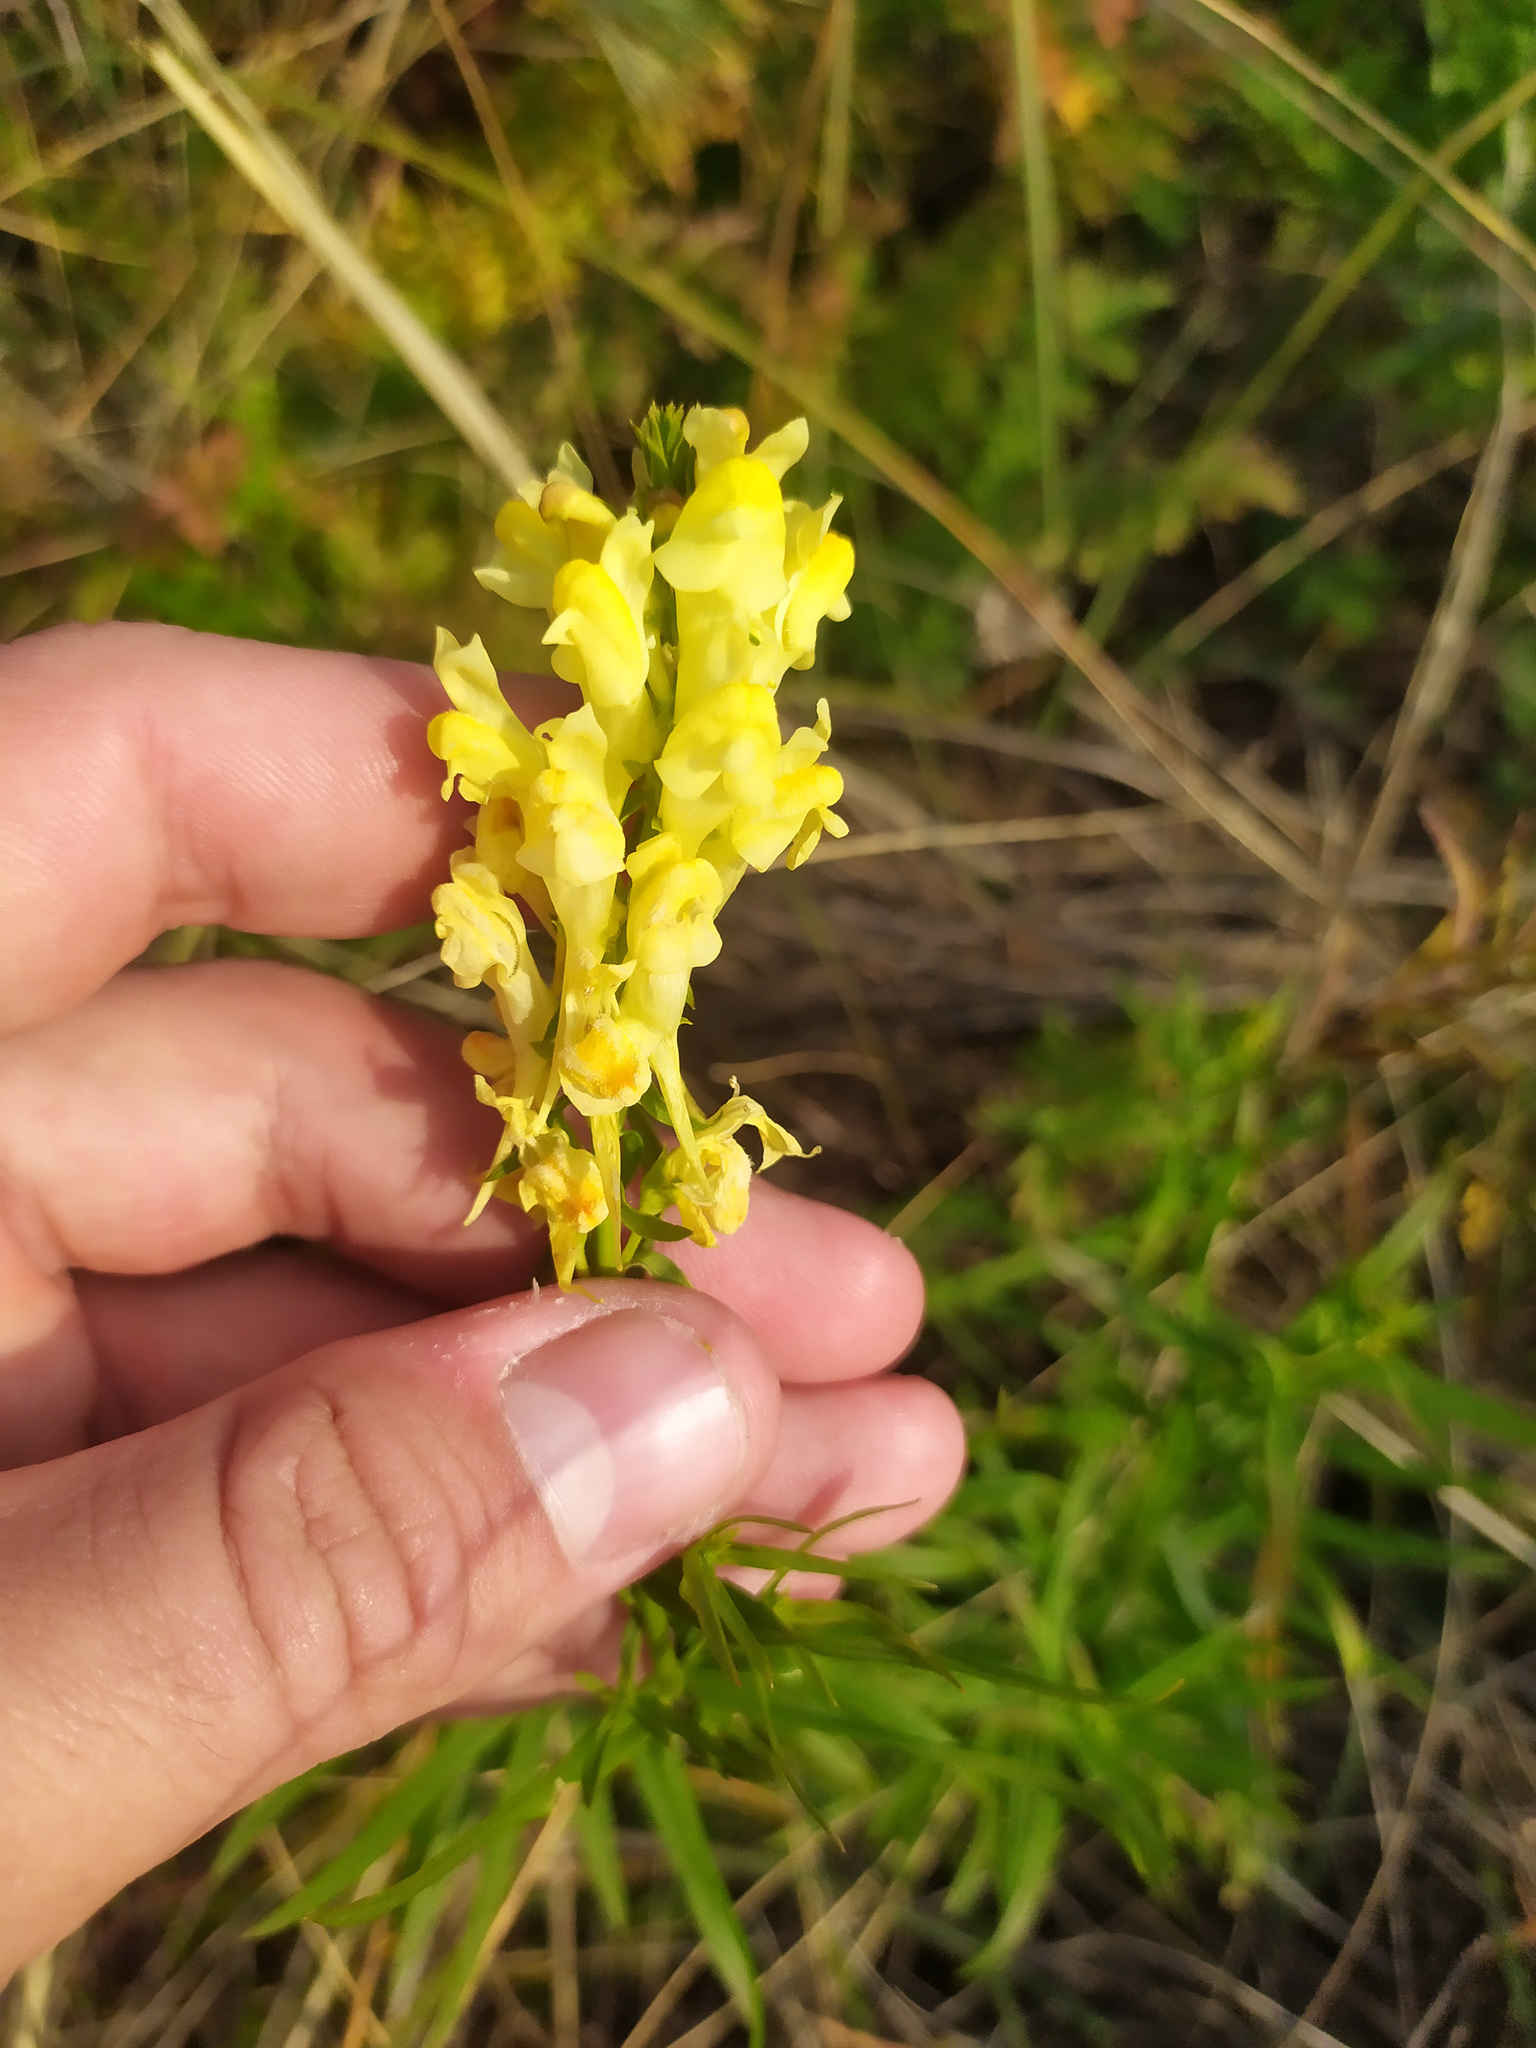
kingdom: Plantae
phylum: Tracheophyta
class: Magnoliopsida
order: Lamiales
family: Plantaginaceae
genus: Linaria
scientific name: Linaria vulgaris
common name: Butter and eggs
